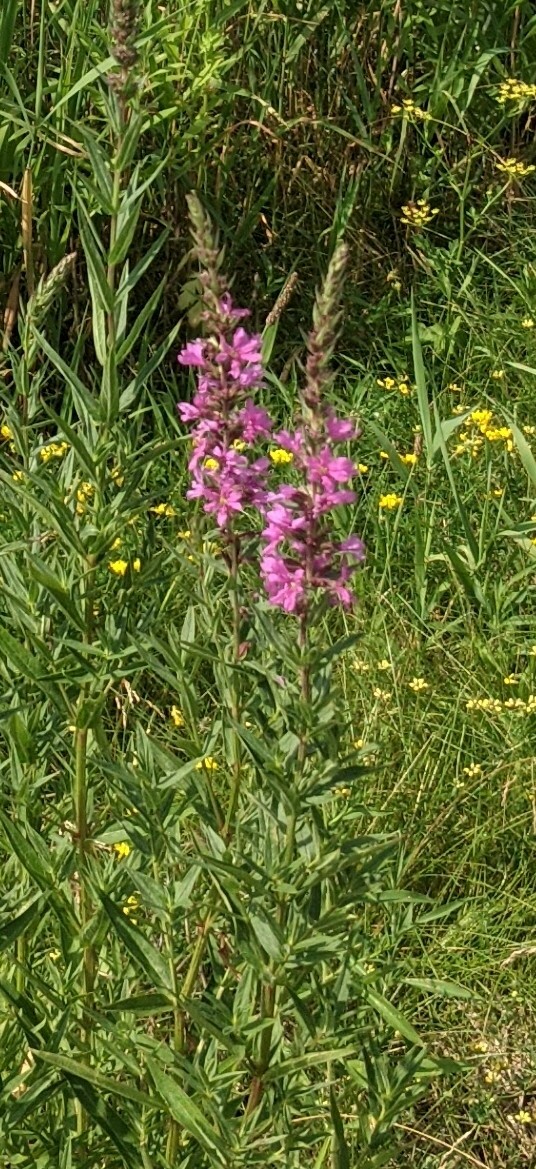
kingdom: Plantae
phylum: Tracheophyta
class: Magnoliopsida
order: Myrtales
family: Lythraceae
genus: Lythrum
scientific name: Lythrum salicaria
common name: Purple loosestrife
